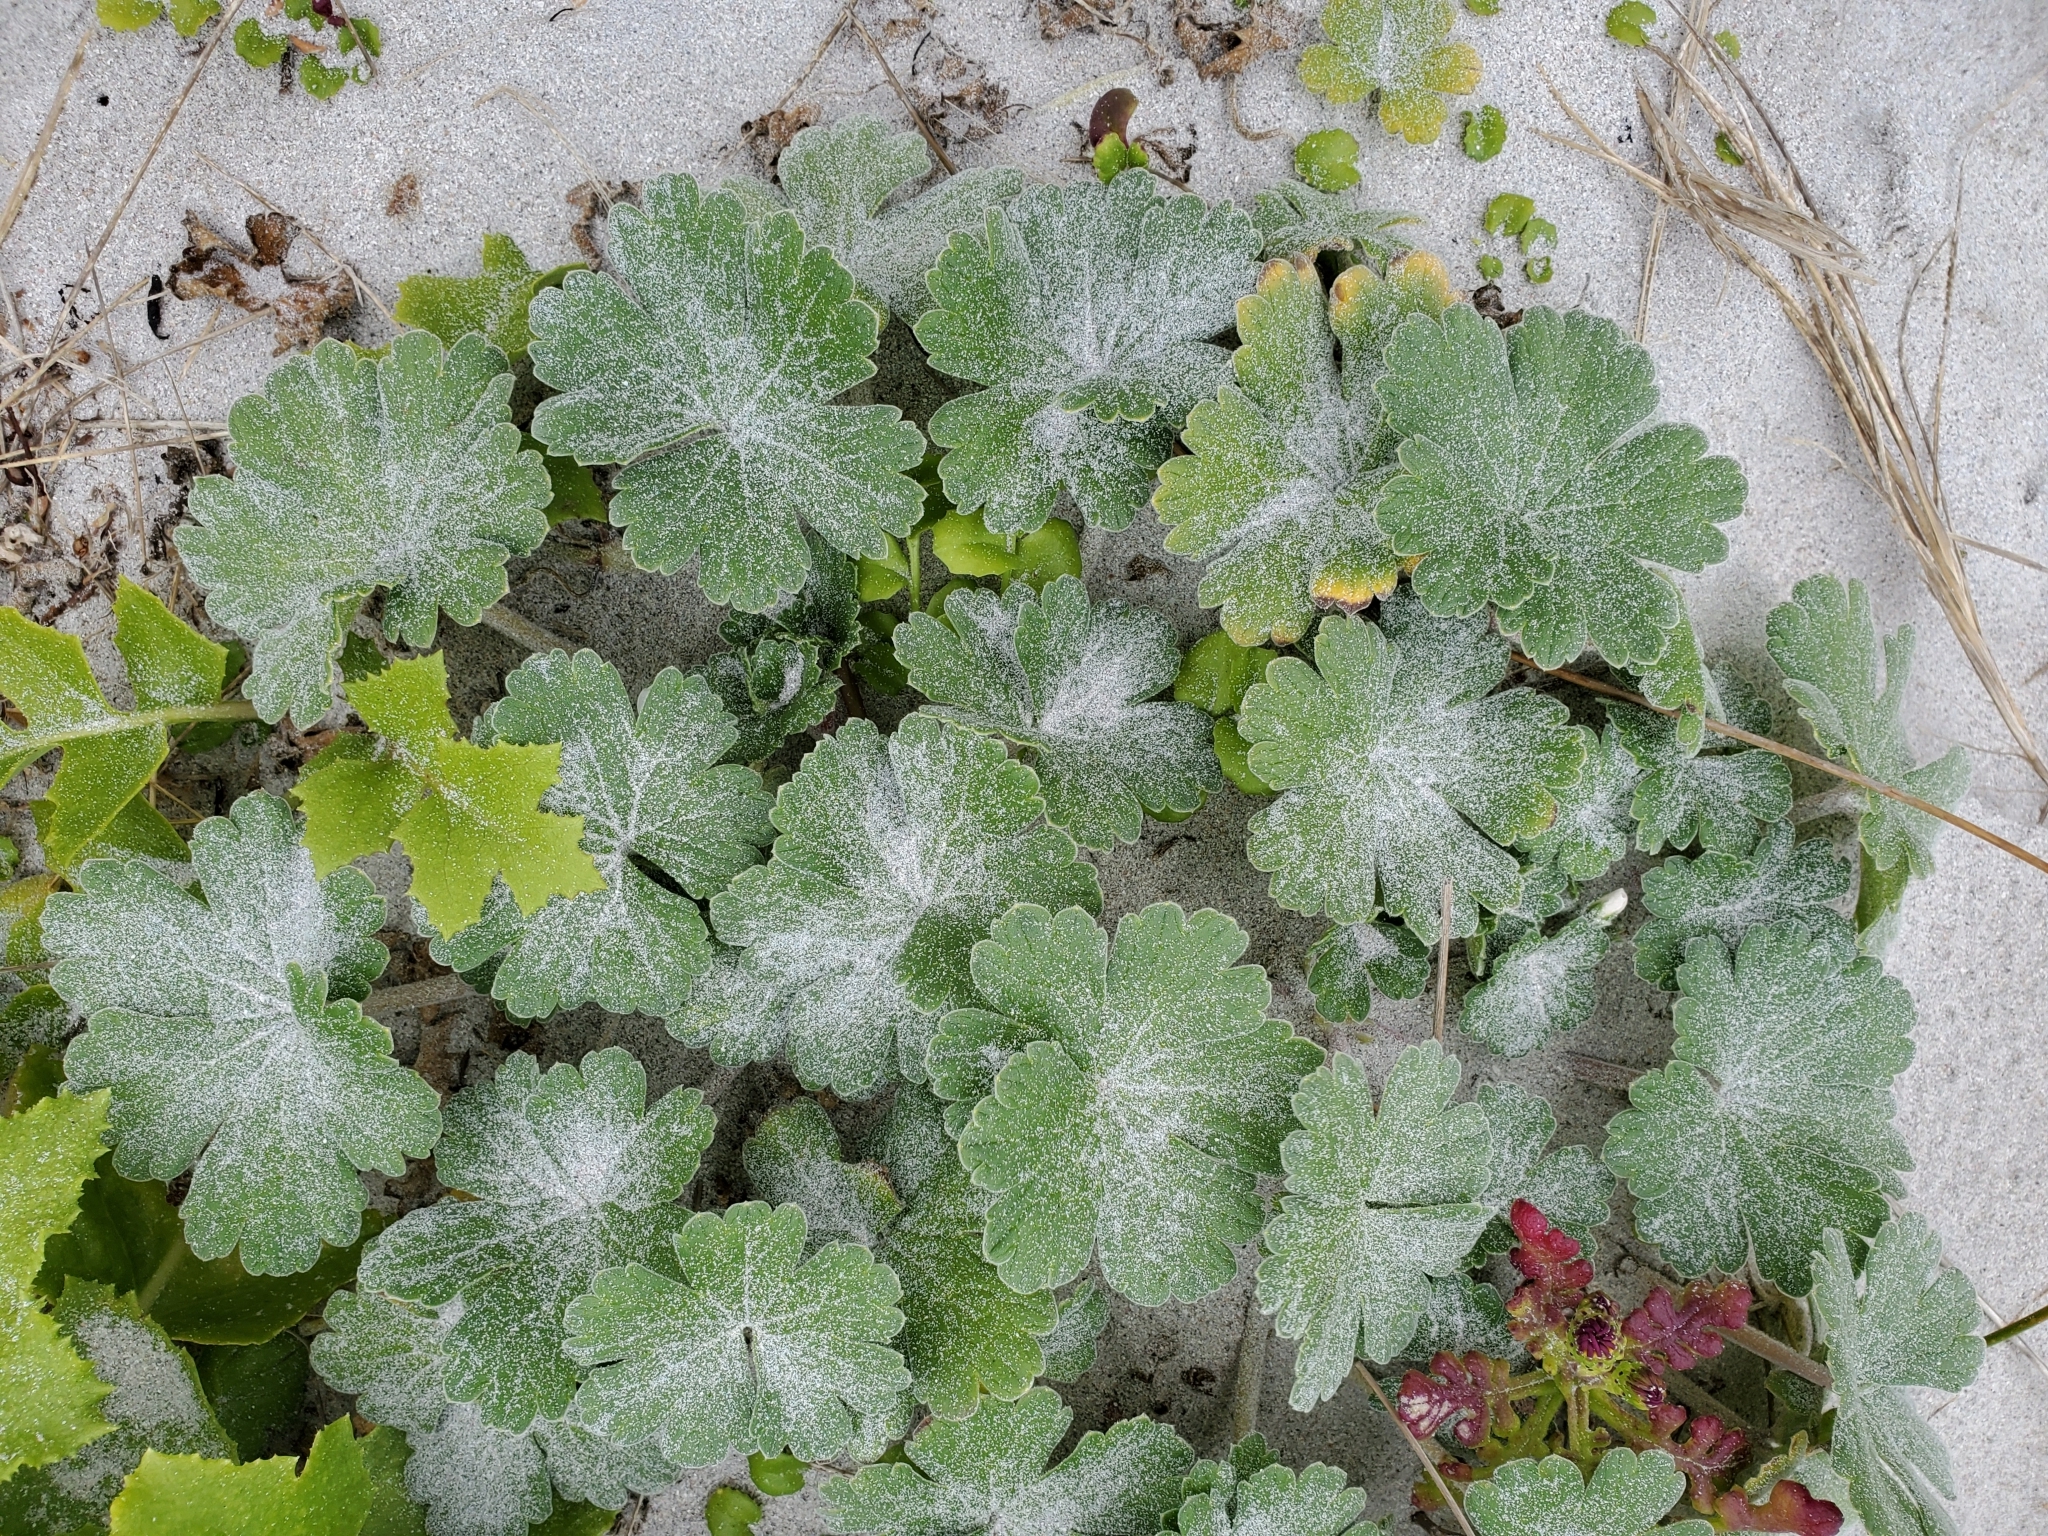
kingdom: Plantae
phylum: Tracheophyta
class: Magnoliopsida
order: Geraniales
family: Geraniaceae
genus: Geranium
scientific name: Geranium traversii
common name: Cranesbill
